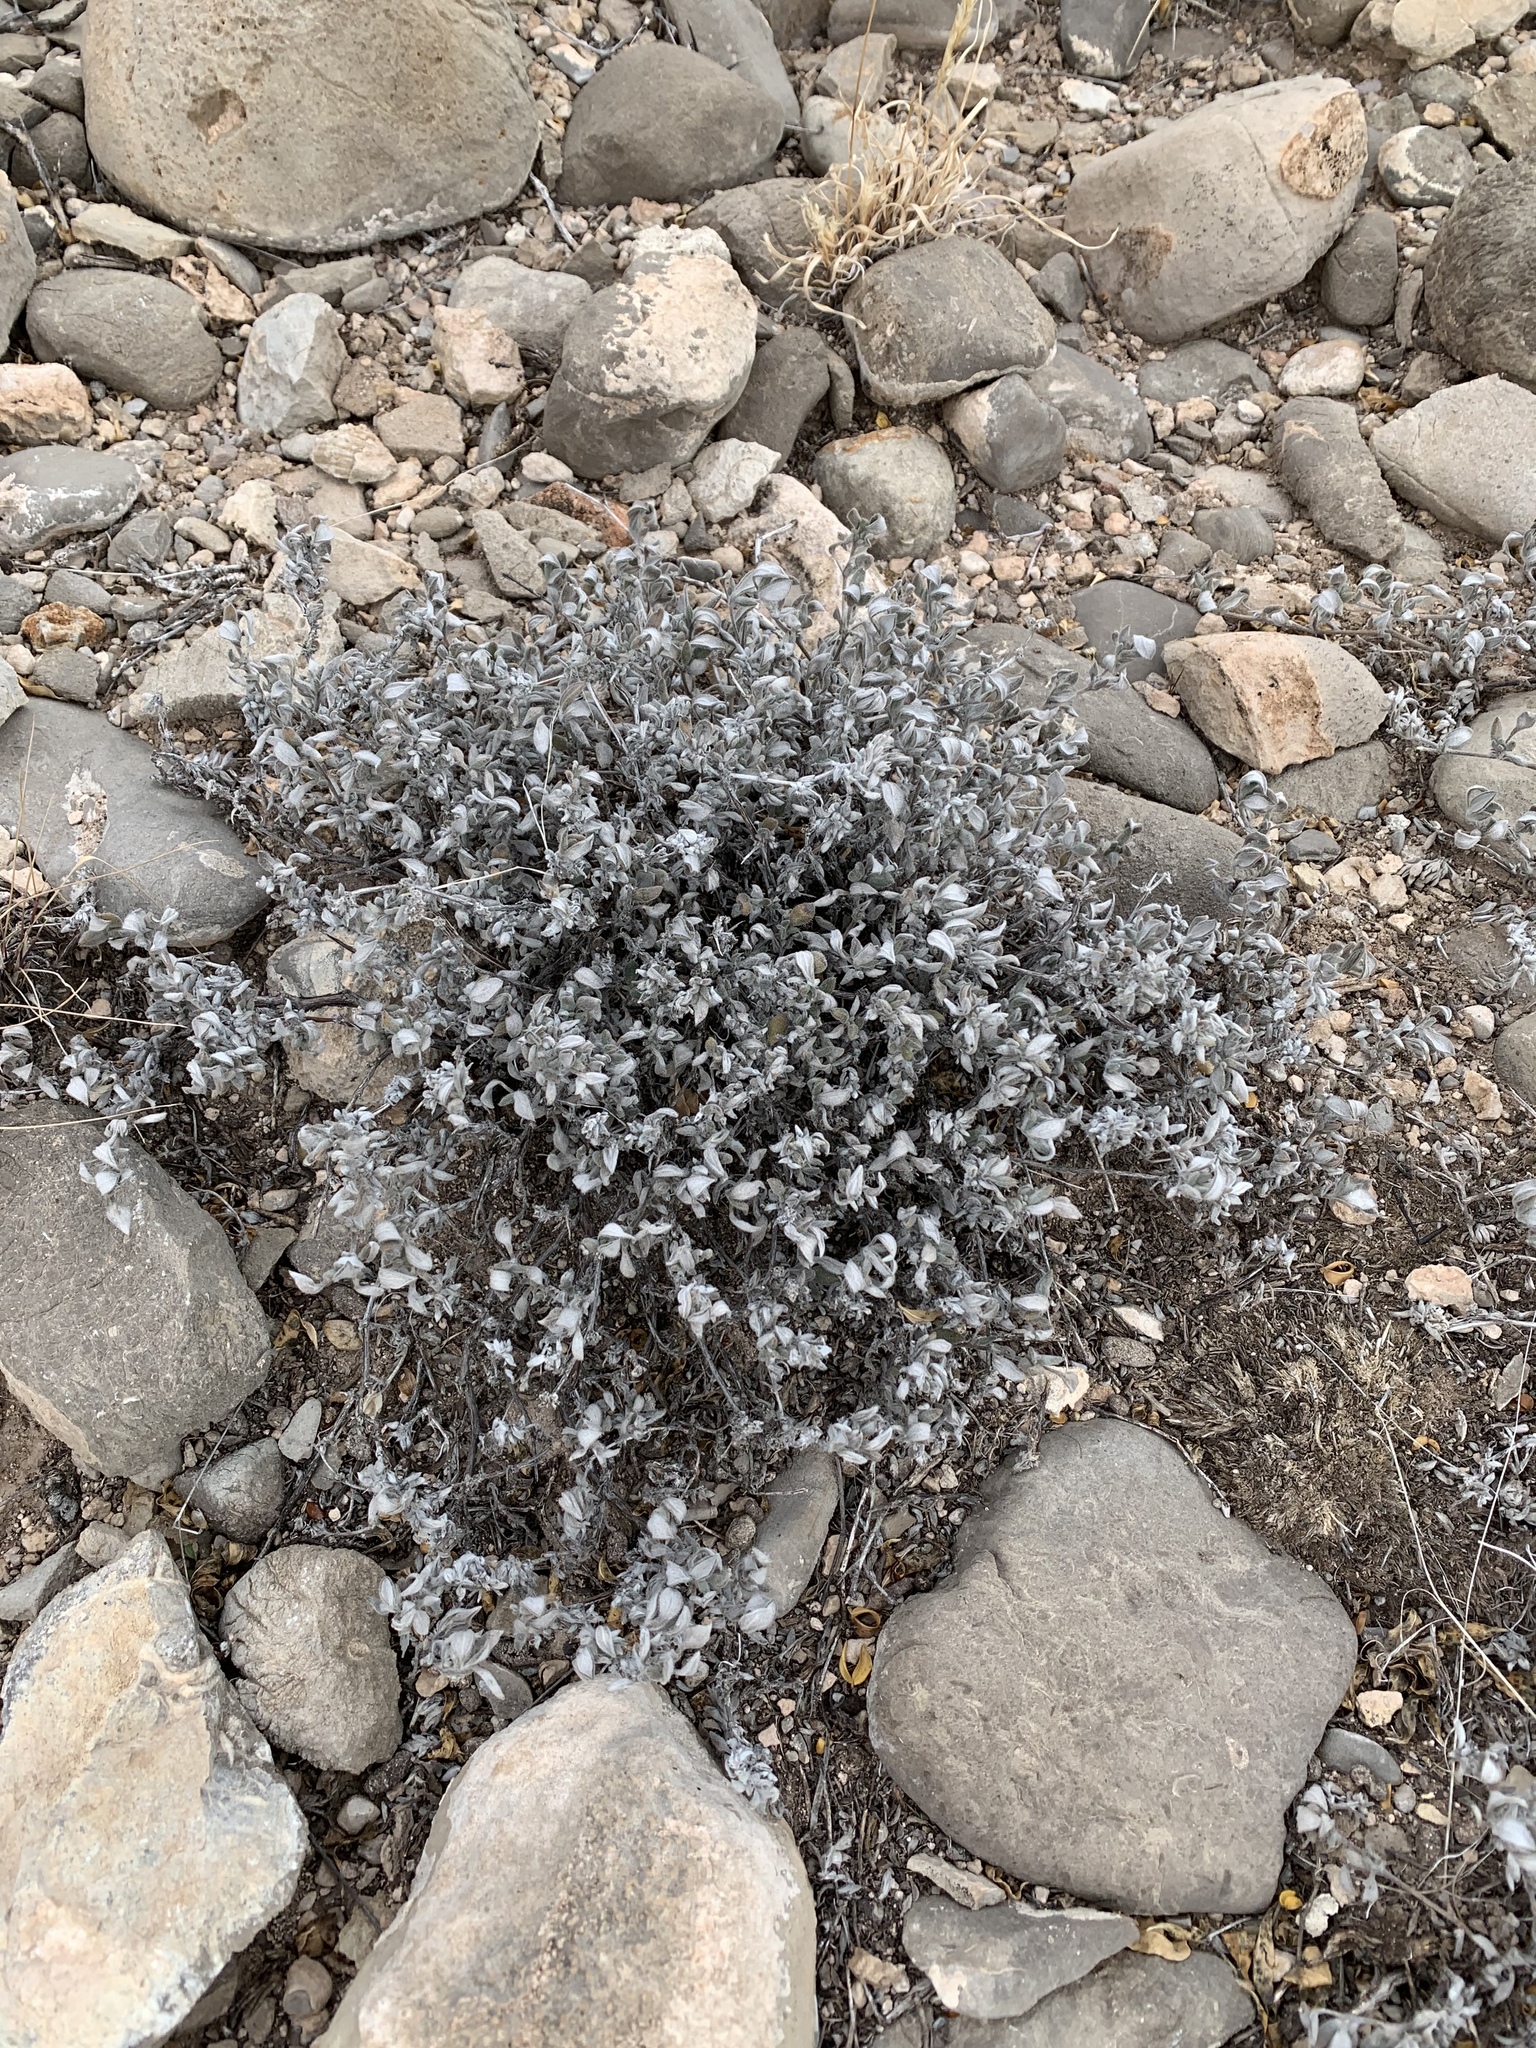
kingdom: Plantae
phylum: Tracheophyta
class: Magnoliopsida
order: Boraginales
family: Ehretiaceae
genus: Tiquilia
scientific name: Tiquilia canescens
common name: Hairy tiquilia
